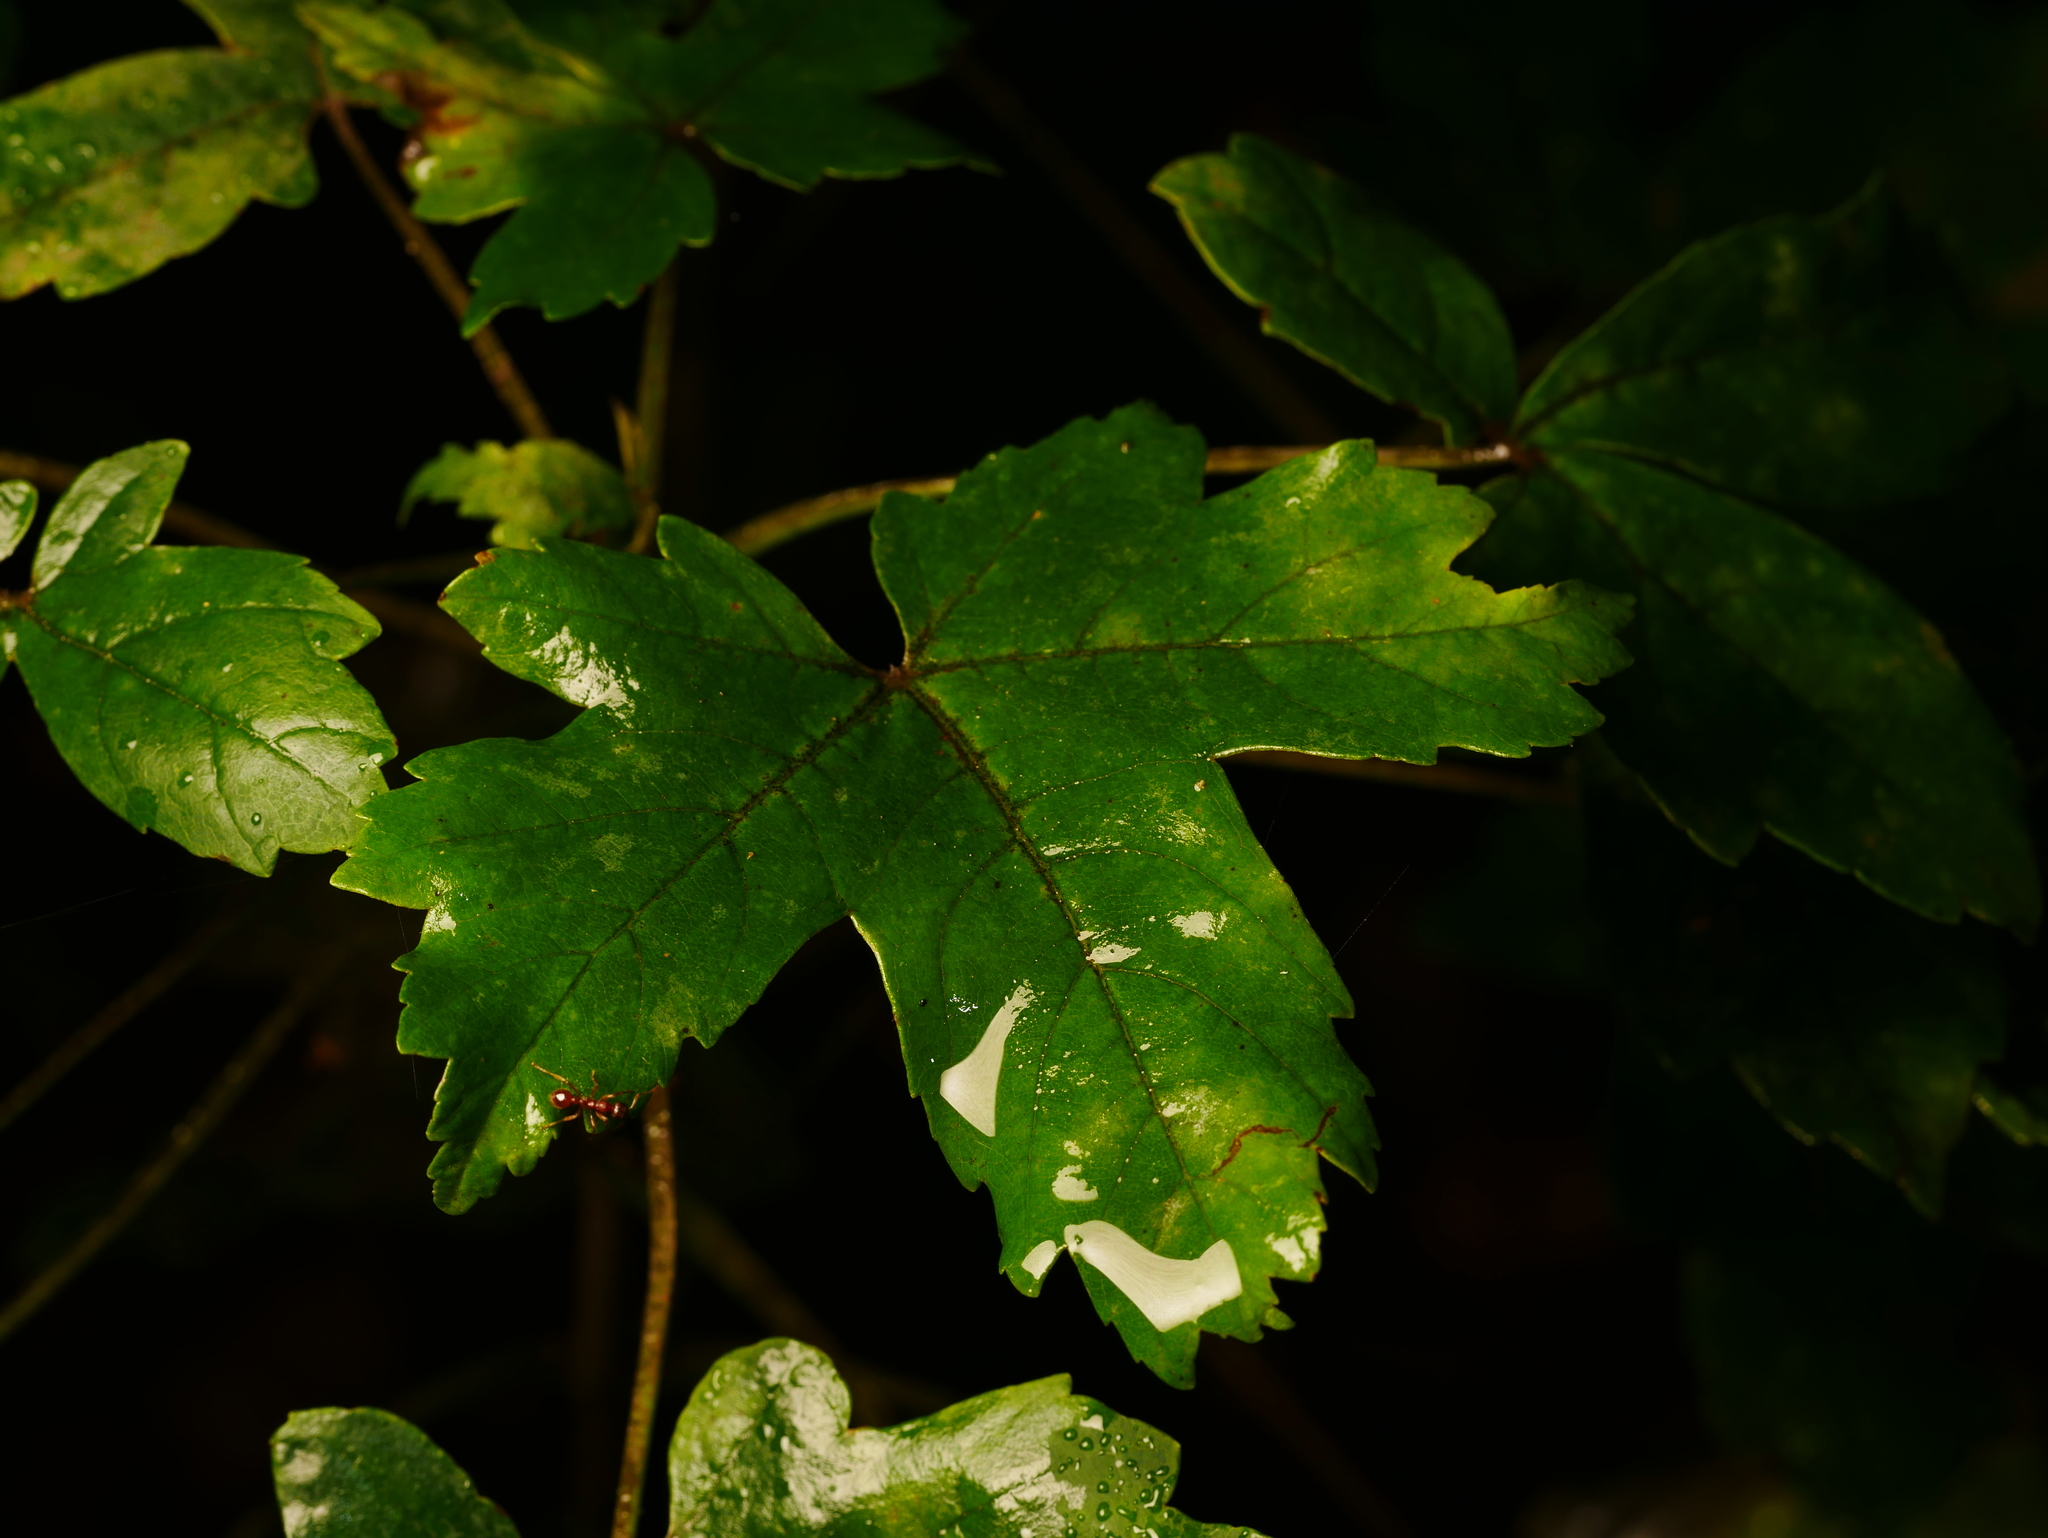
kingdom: Plantae
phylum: Tracheophyta
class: Magnoliopsida
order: Sapindales
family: Sapindaceae
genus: Acer
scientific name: Acer pseudoplatanus
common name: Sycamore
